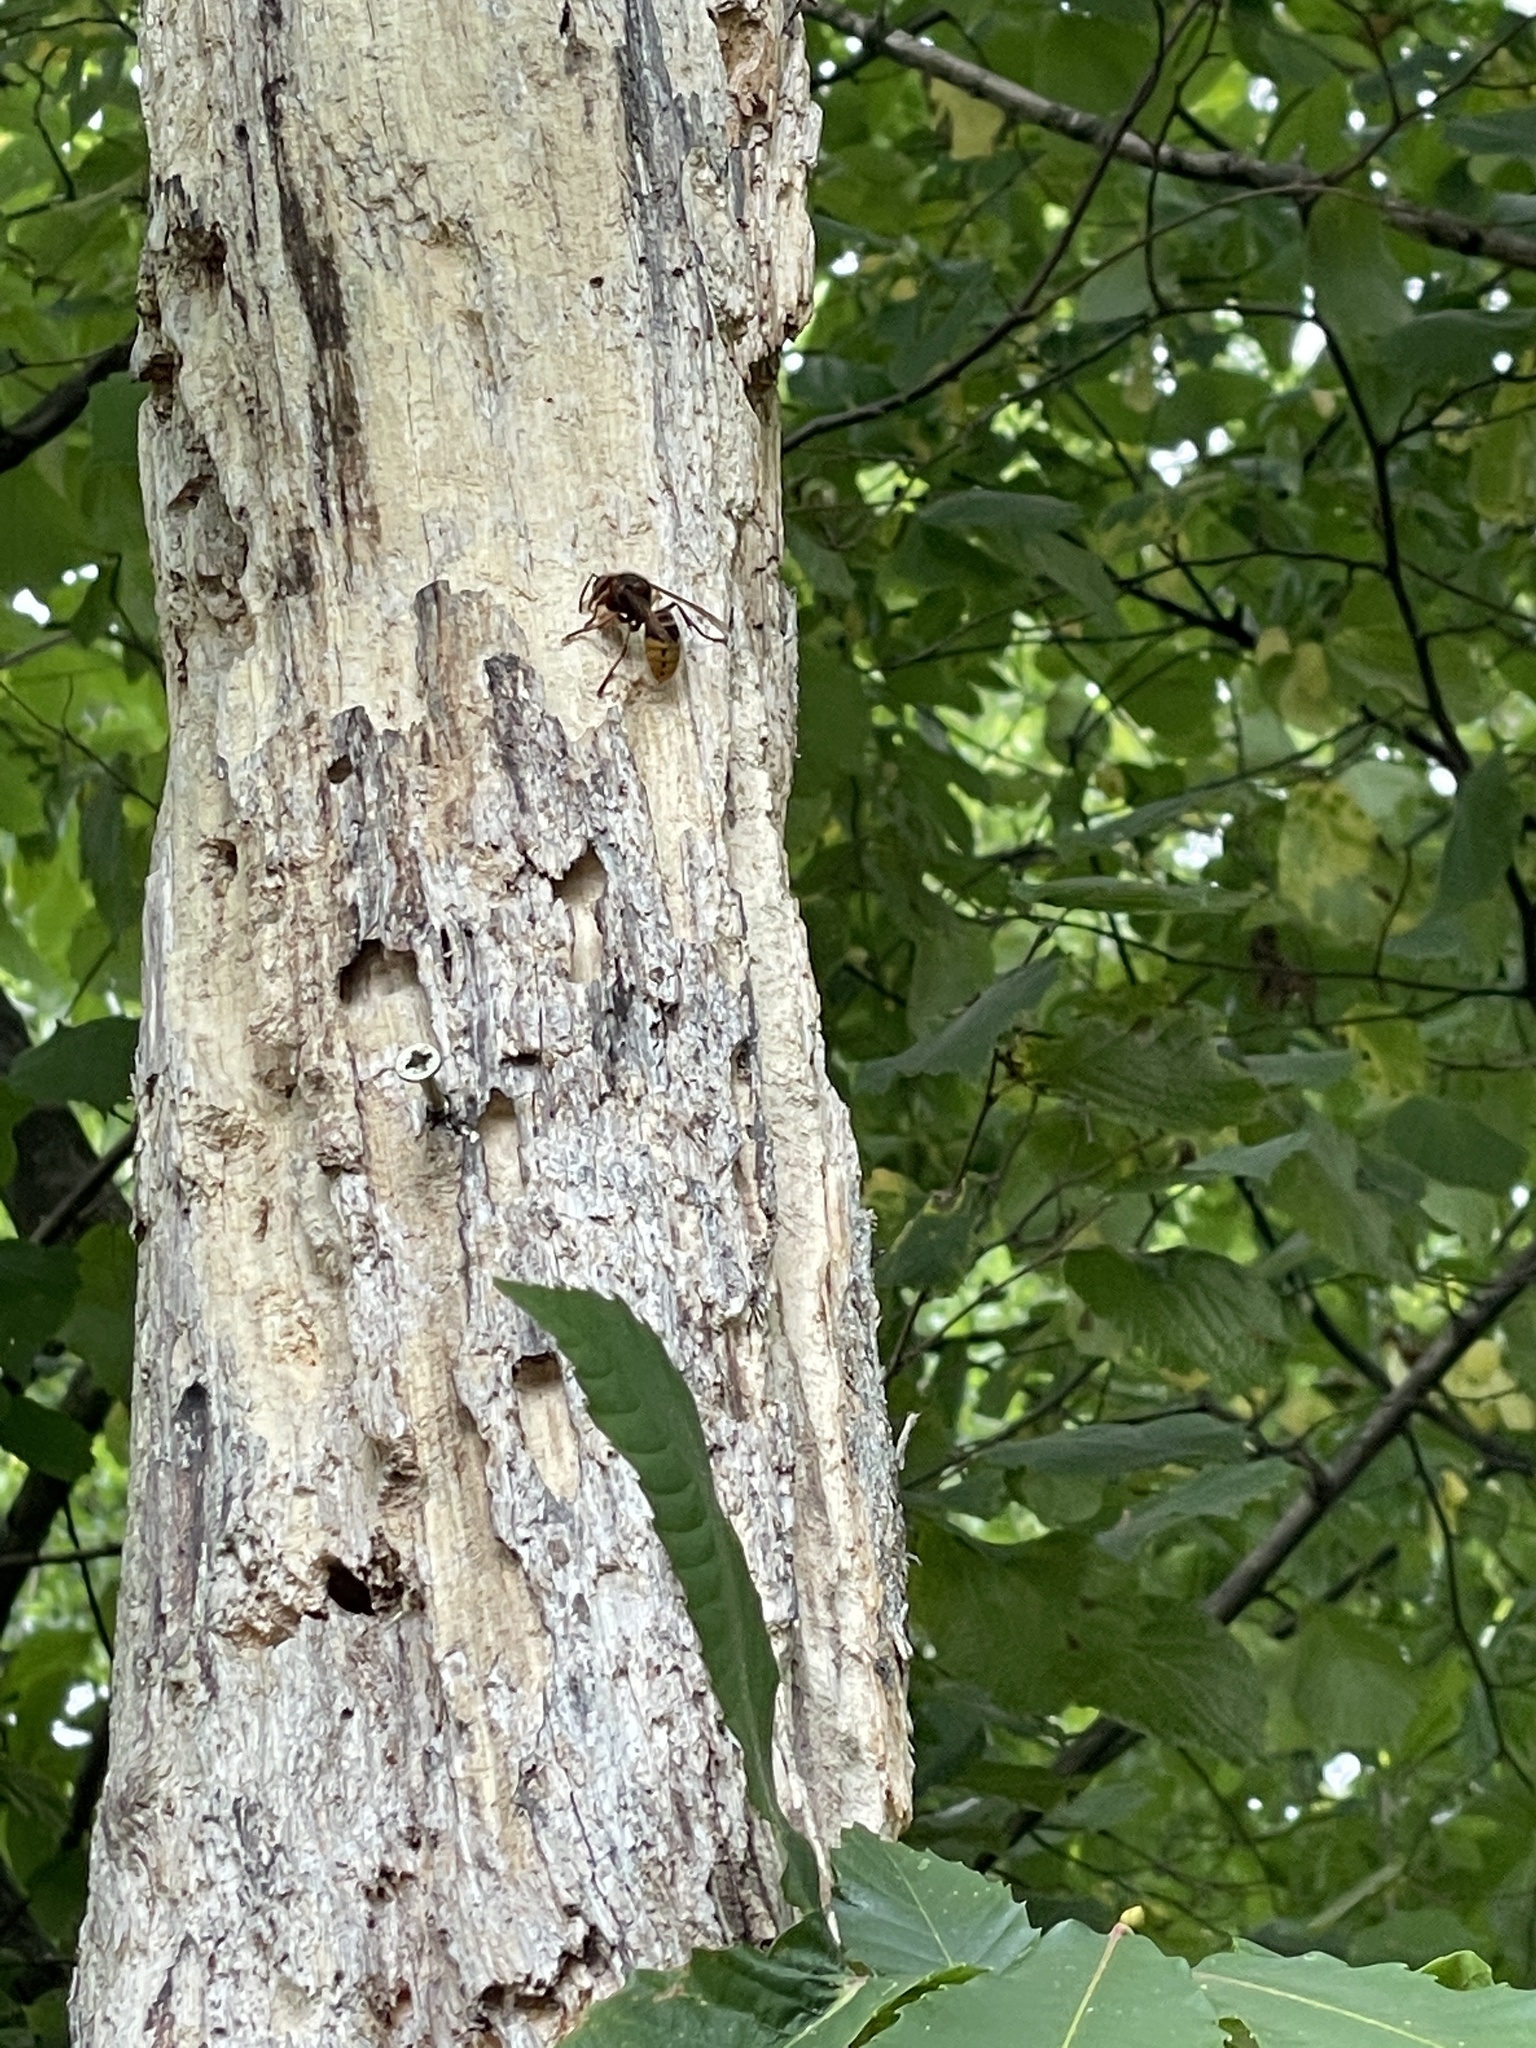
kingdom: Animalia
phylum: Arthropoda
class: Insecta
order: Hymenoptera
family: Vespidae
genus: Vespa
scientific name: Vespa crabro
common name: Hornet
